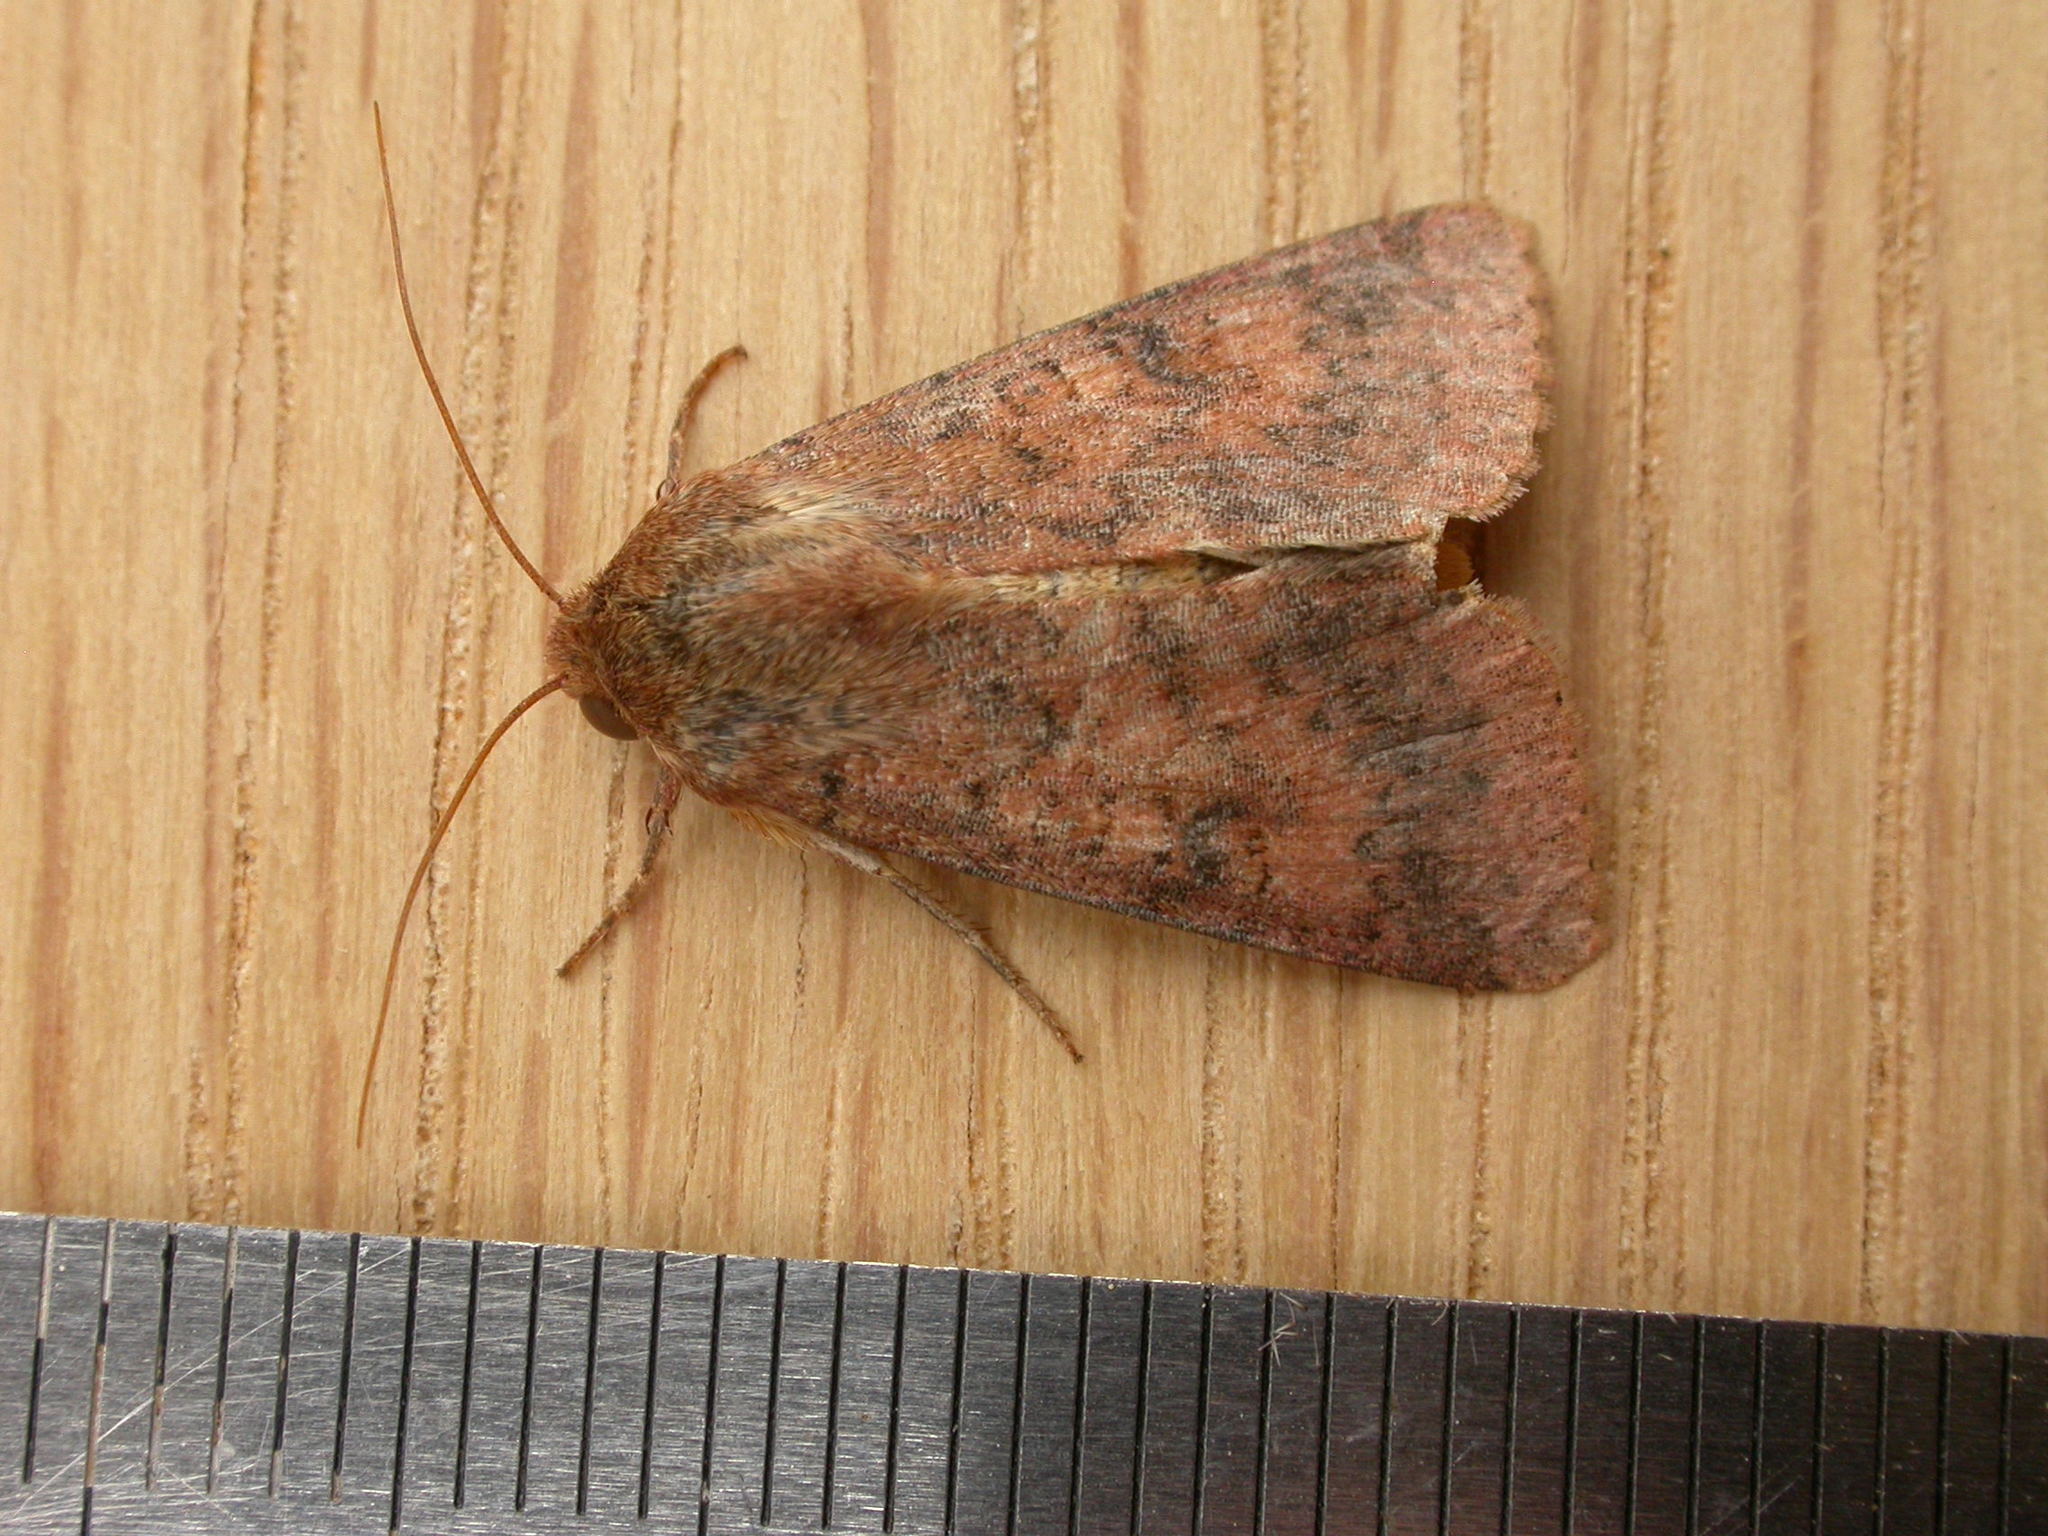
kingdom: Animalia
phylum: Arthropoda
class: Insecta
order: Lepidoptera
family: Noctuidae
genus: Australothis
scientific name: Australothis rubrescens
